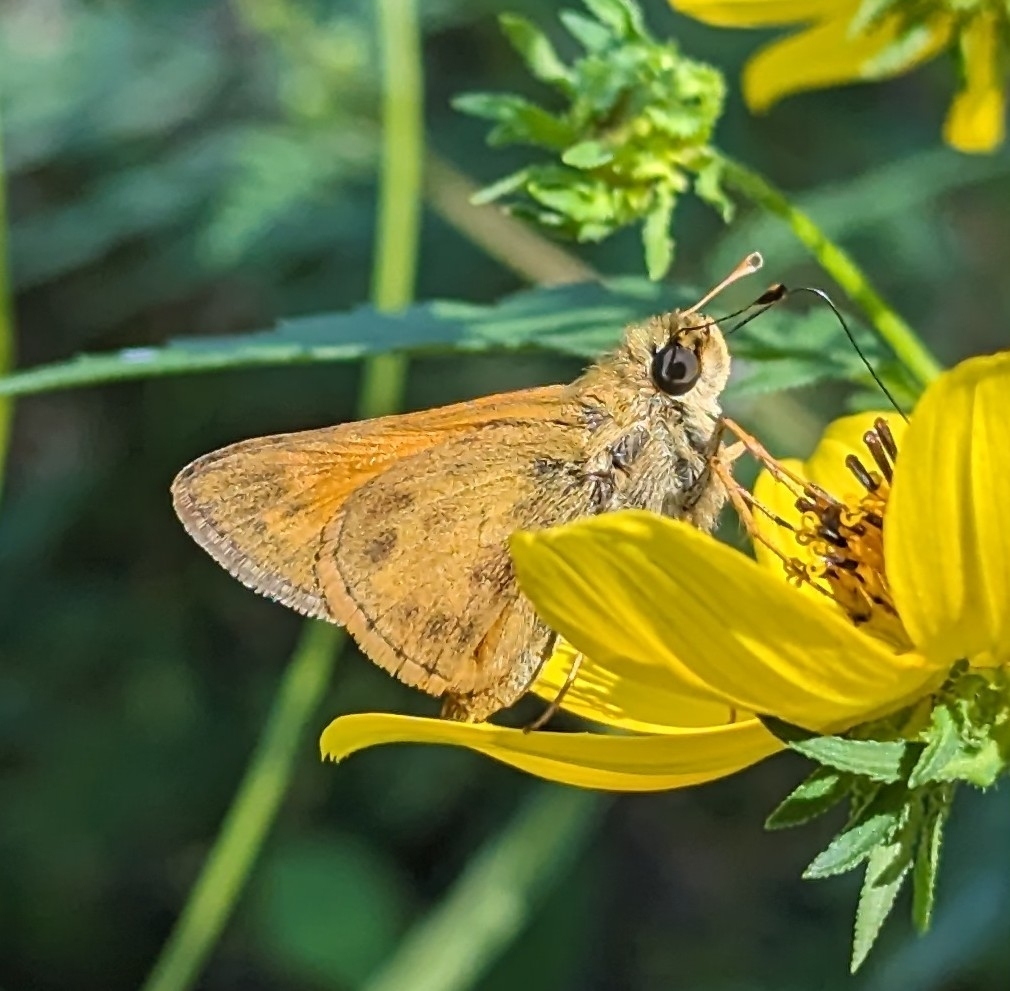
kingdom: Animalia
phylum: Arthropoda
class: Insecta
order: Lepidoptera
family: Hesperiidae
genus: Atalopedes
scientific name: Atalopedes
